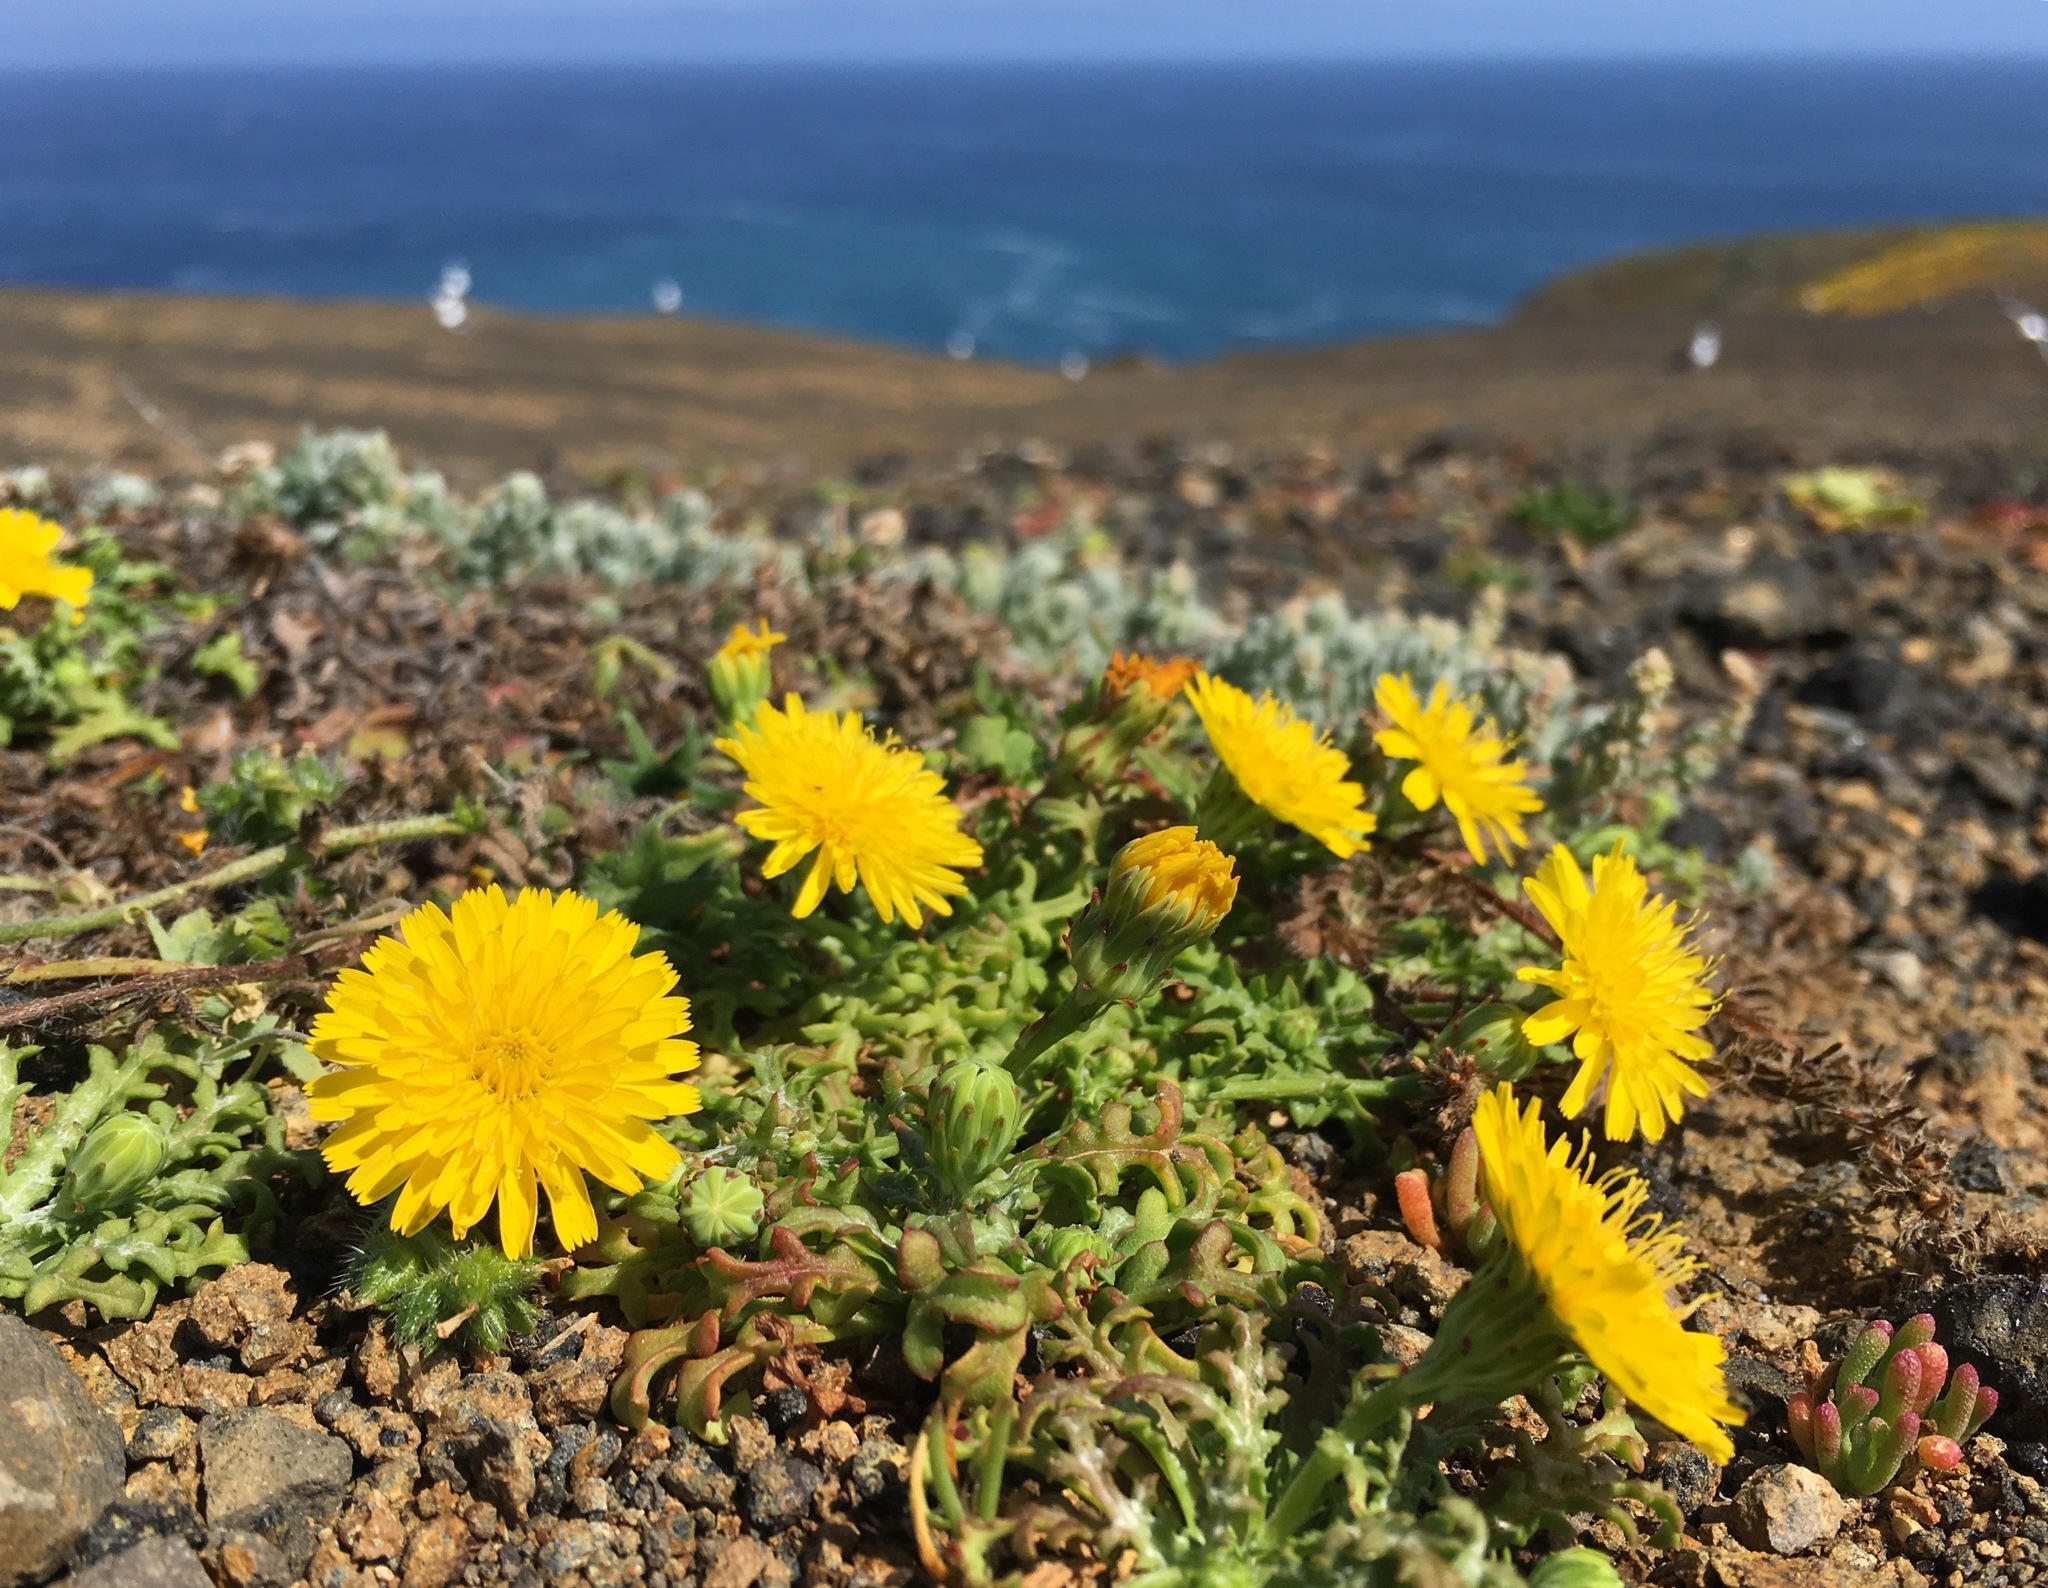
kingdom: Plantae
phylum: Tracheophyta
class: Magnoliopsida
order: Asterales
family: Asteraceae
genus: Malacothrix
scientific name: Malacothrix foliosa
